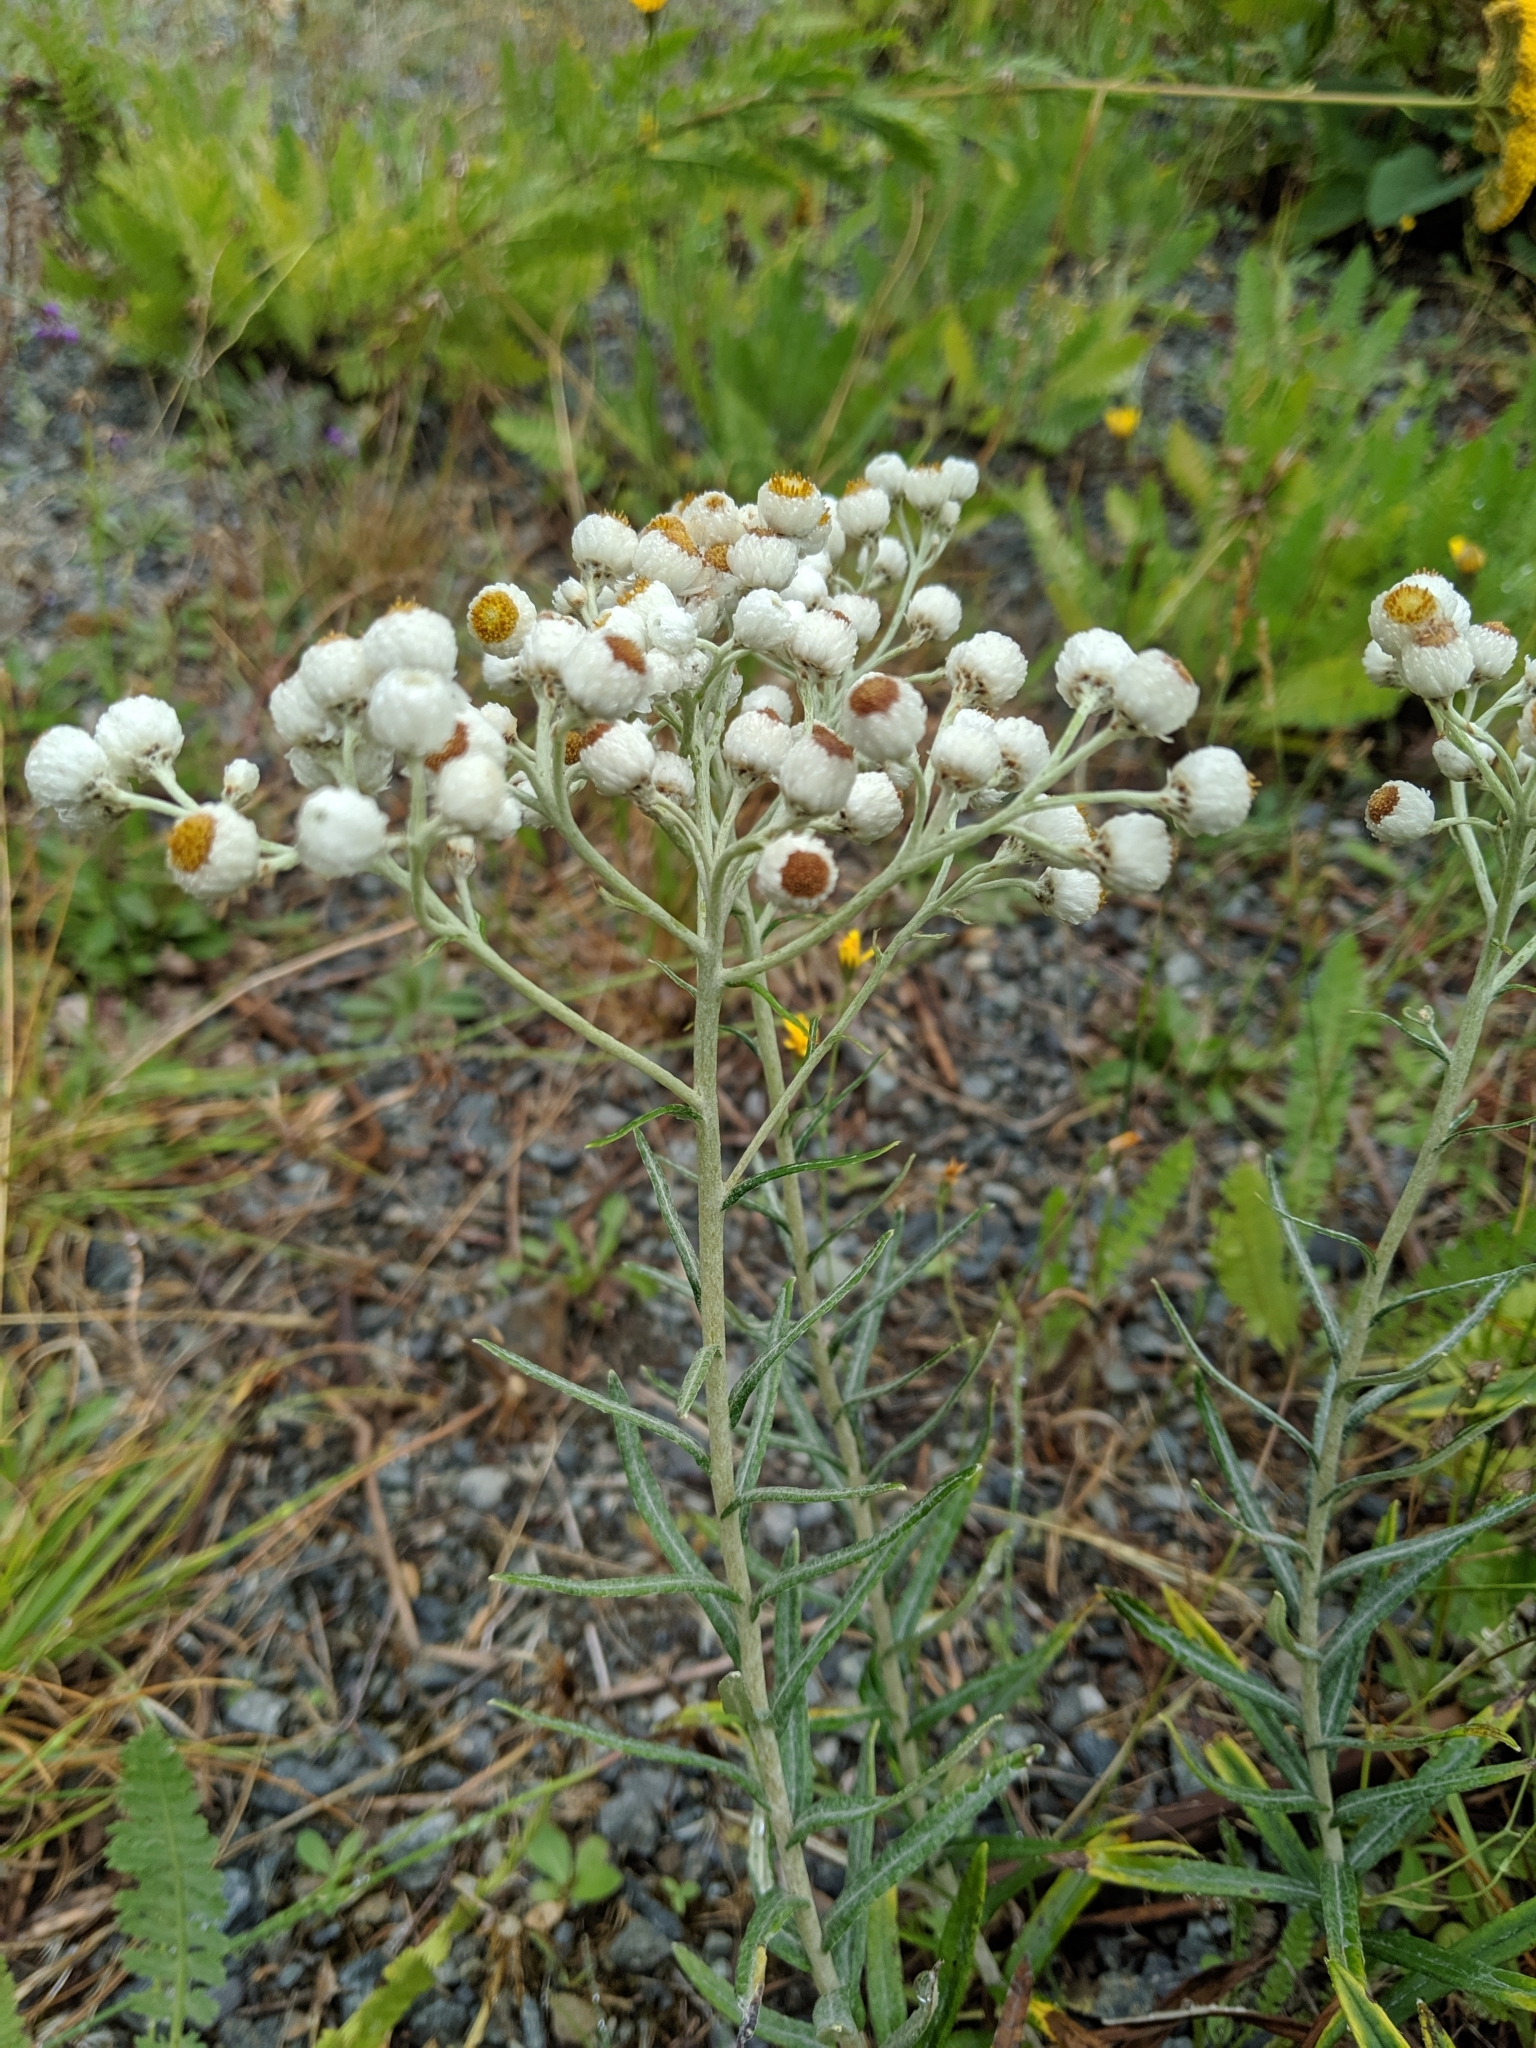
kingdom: Plantae
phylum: Tracheophyta
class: Magnoliopsida
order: Asterales
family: Asteraceae
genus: Anaphalis
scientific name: Anaphalis margaritacea
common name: Pearly everlasting
